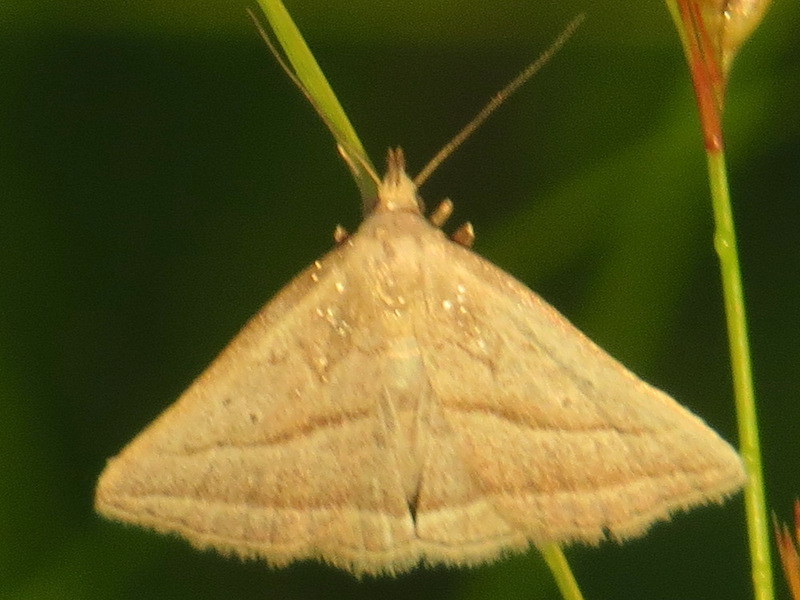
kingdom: Animalia
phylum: Arthropoda
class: Insecta
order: Lepidoptera
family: Erebidae
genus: Macrochilo
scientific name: Macrochilo absorptalis
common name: Slant-lined owlet
